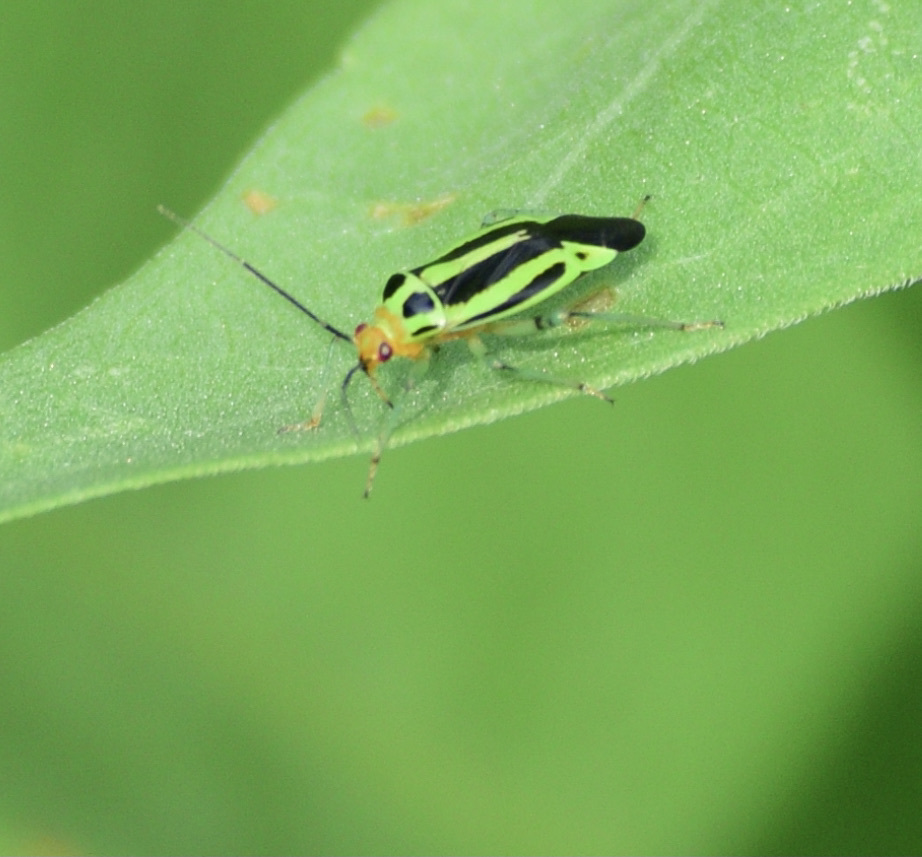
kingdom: Animalia
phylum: Arthropoda
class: Insecta
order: Hemiptera
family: Miridae
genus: Poecilocapsus
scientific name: Poecilocapsus lineatus
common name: Four-lined plant bug
